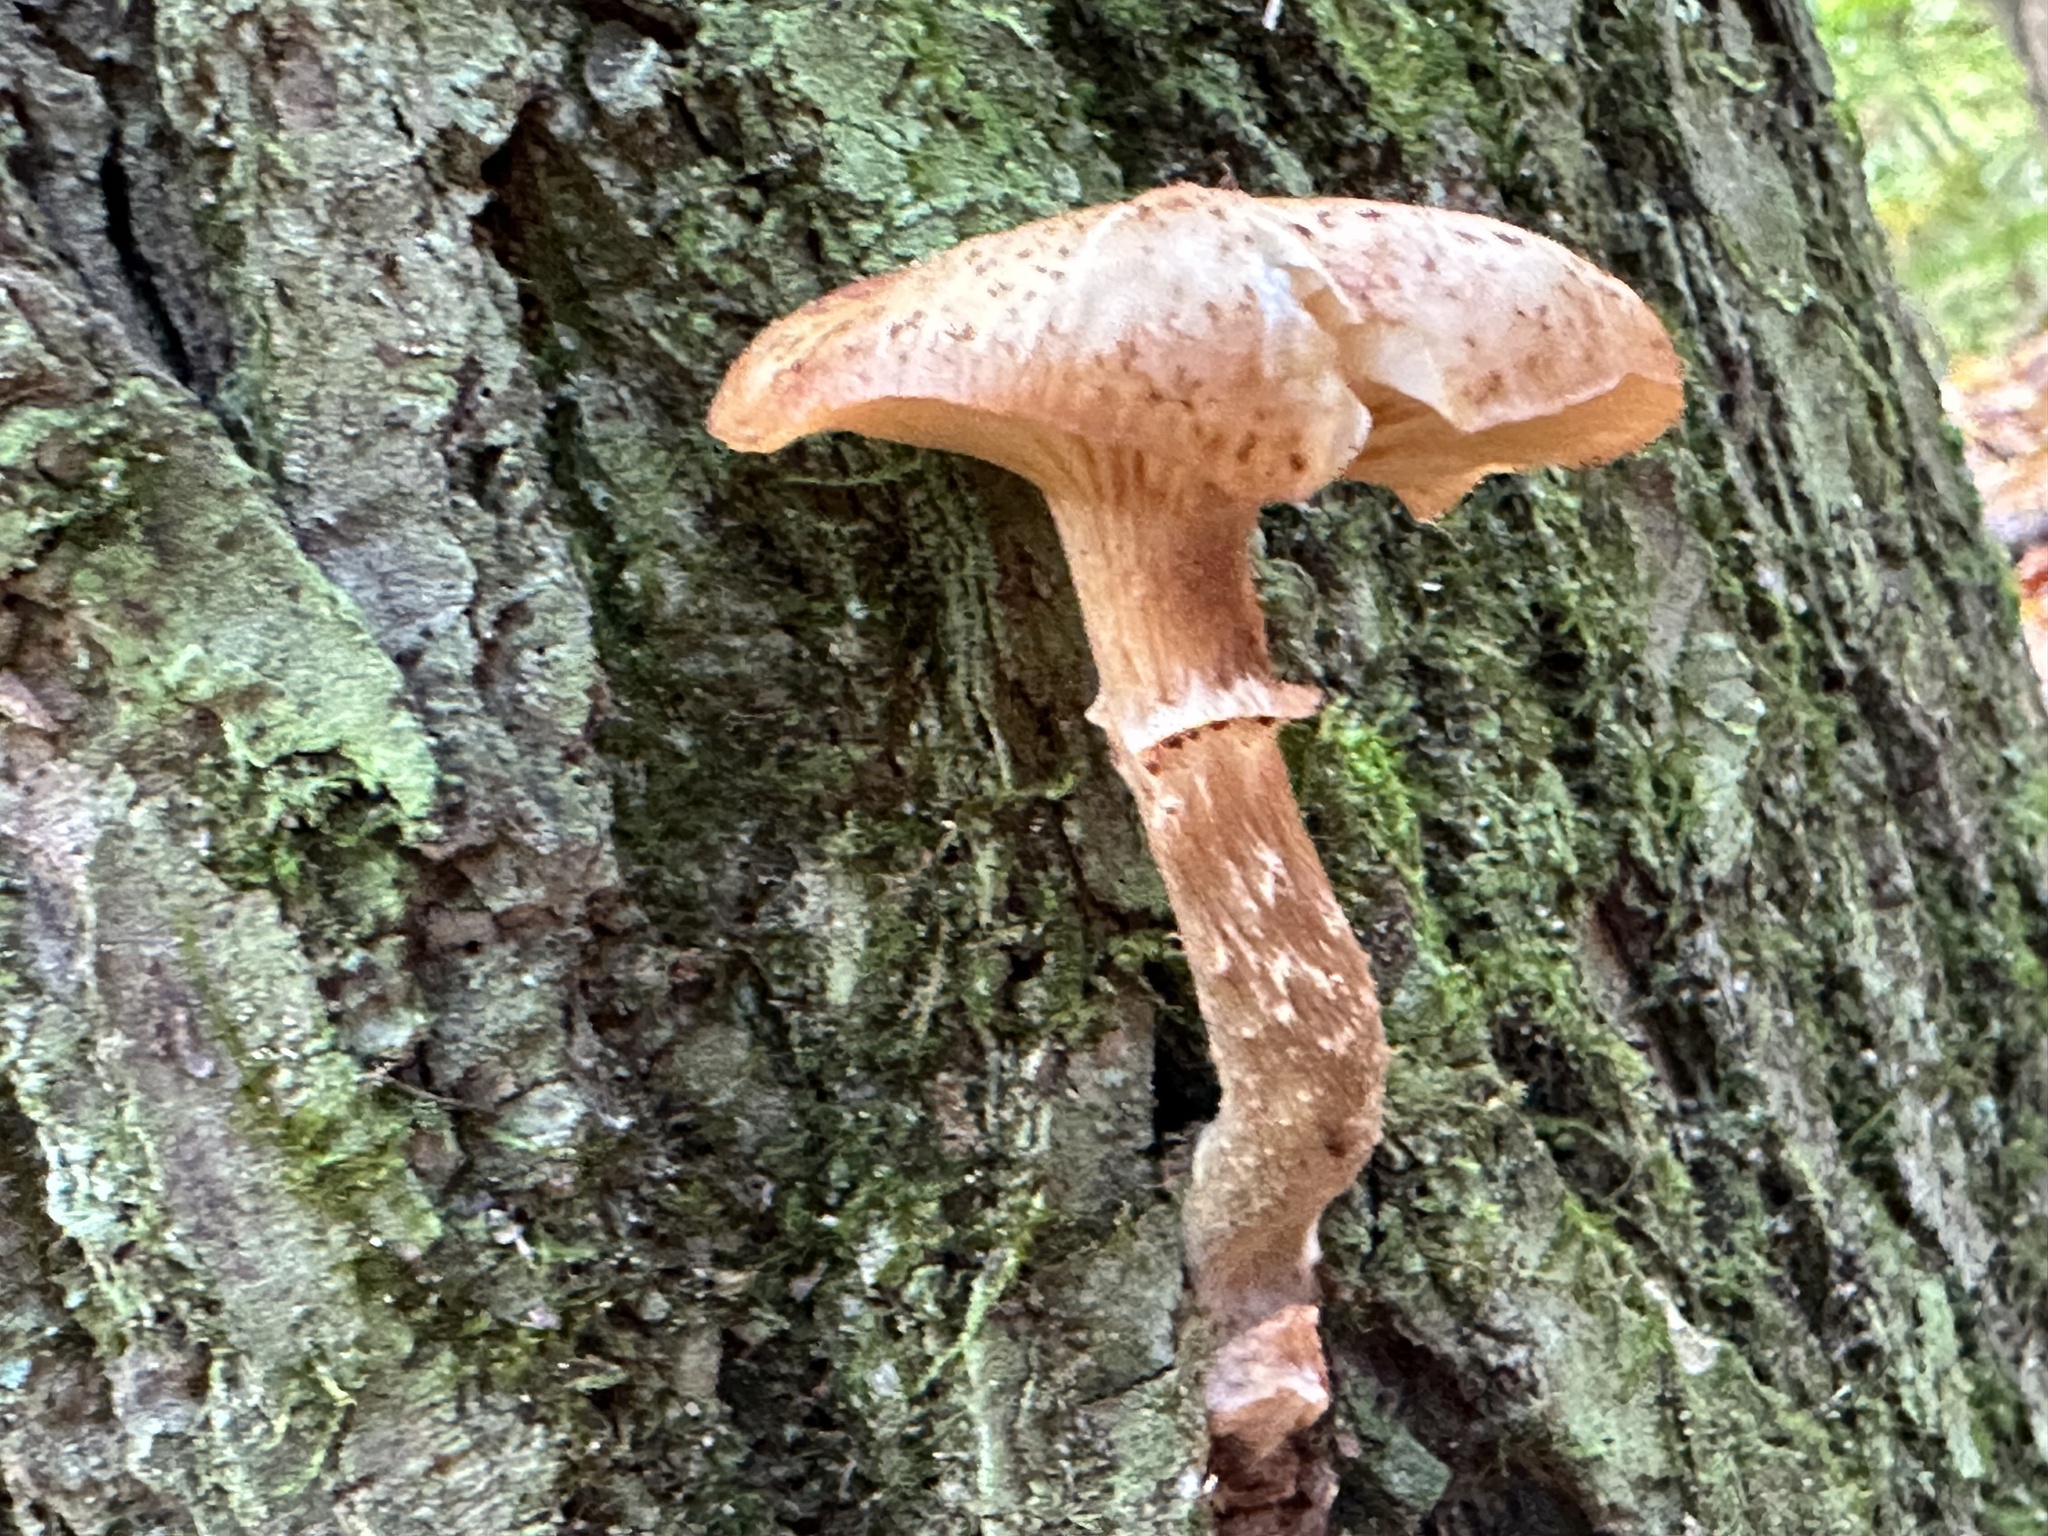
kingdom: Fungi
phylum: Basidiomycota
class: Agaricomycetes
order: Agaricales
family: Physalacriaceae
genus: Armillaria
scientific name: Armillaria gallica
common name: Bulbous honey fungus
